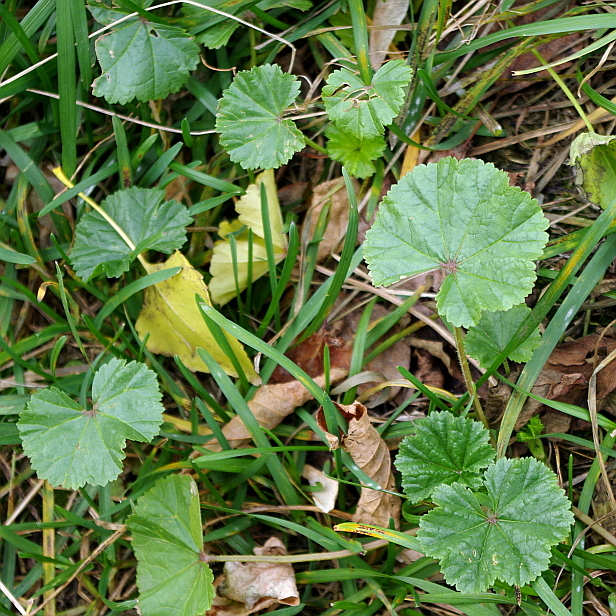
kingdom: Plantae
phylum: Tracheophyta
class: Magnoliopsida
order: Malvales
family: Malvaceae
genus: Malva
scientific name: Malva pusilla
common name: Small mallow
